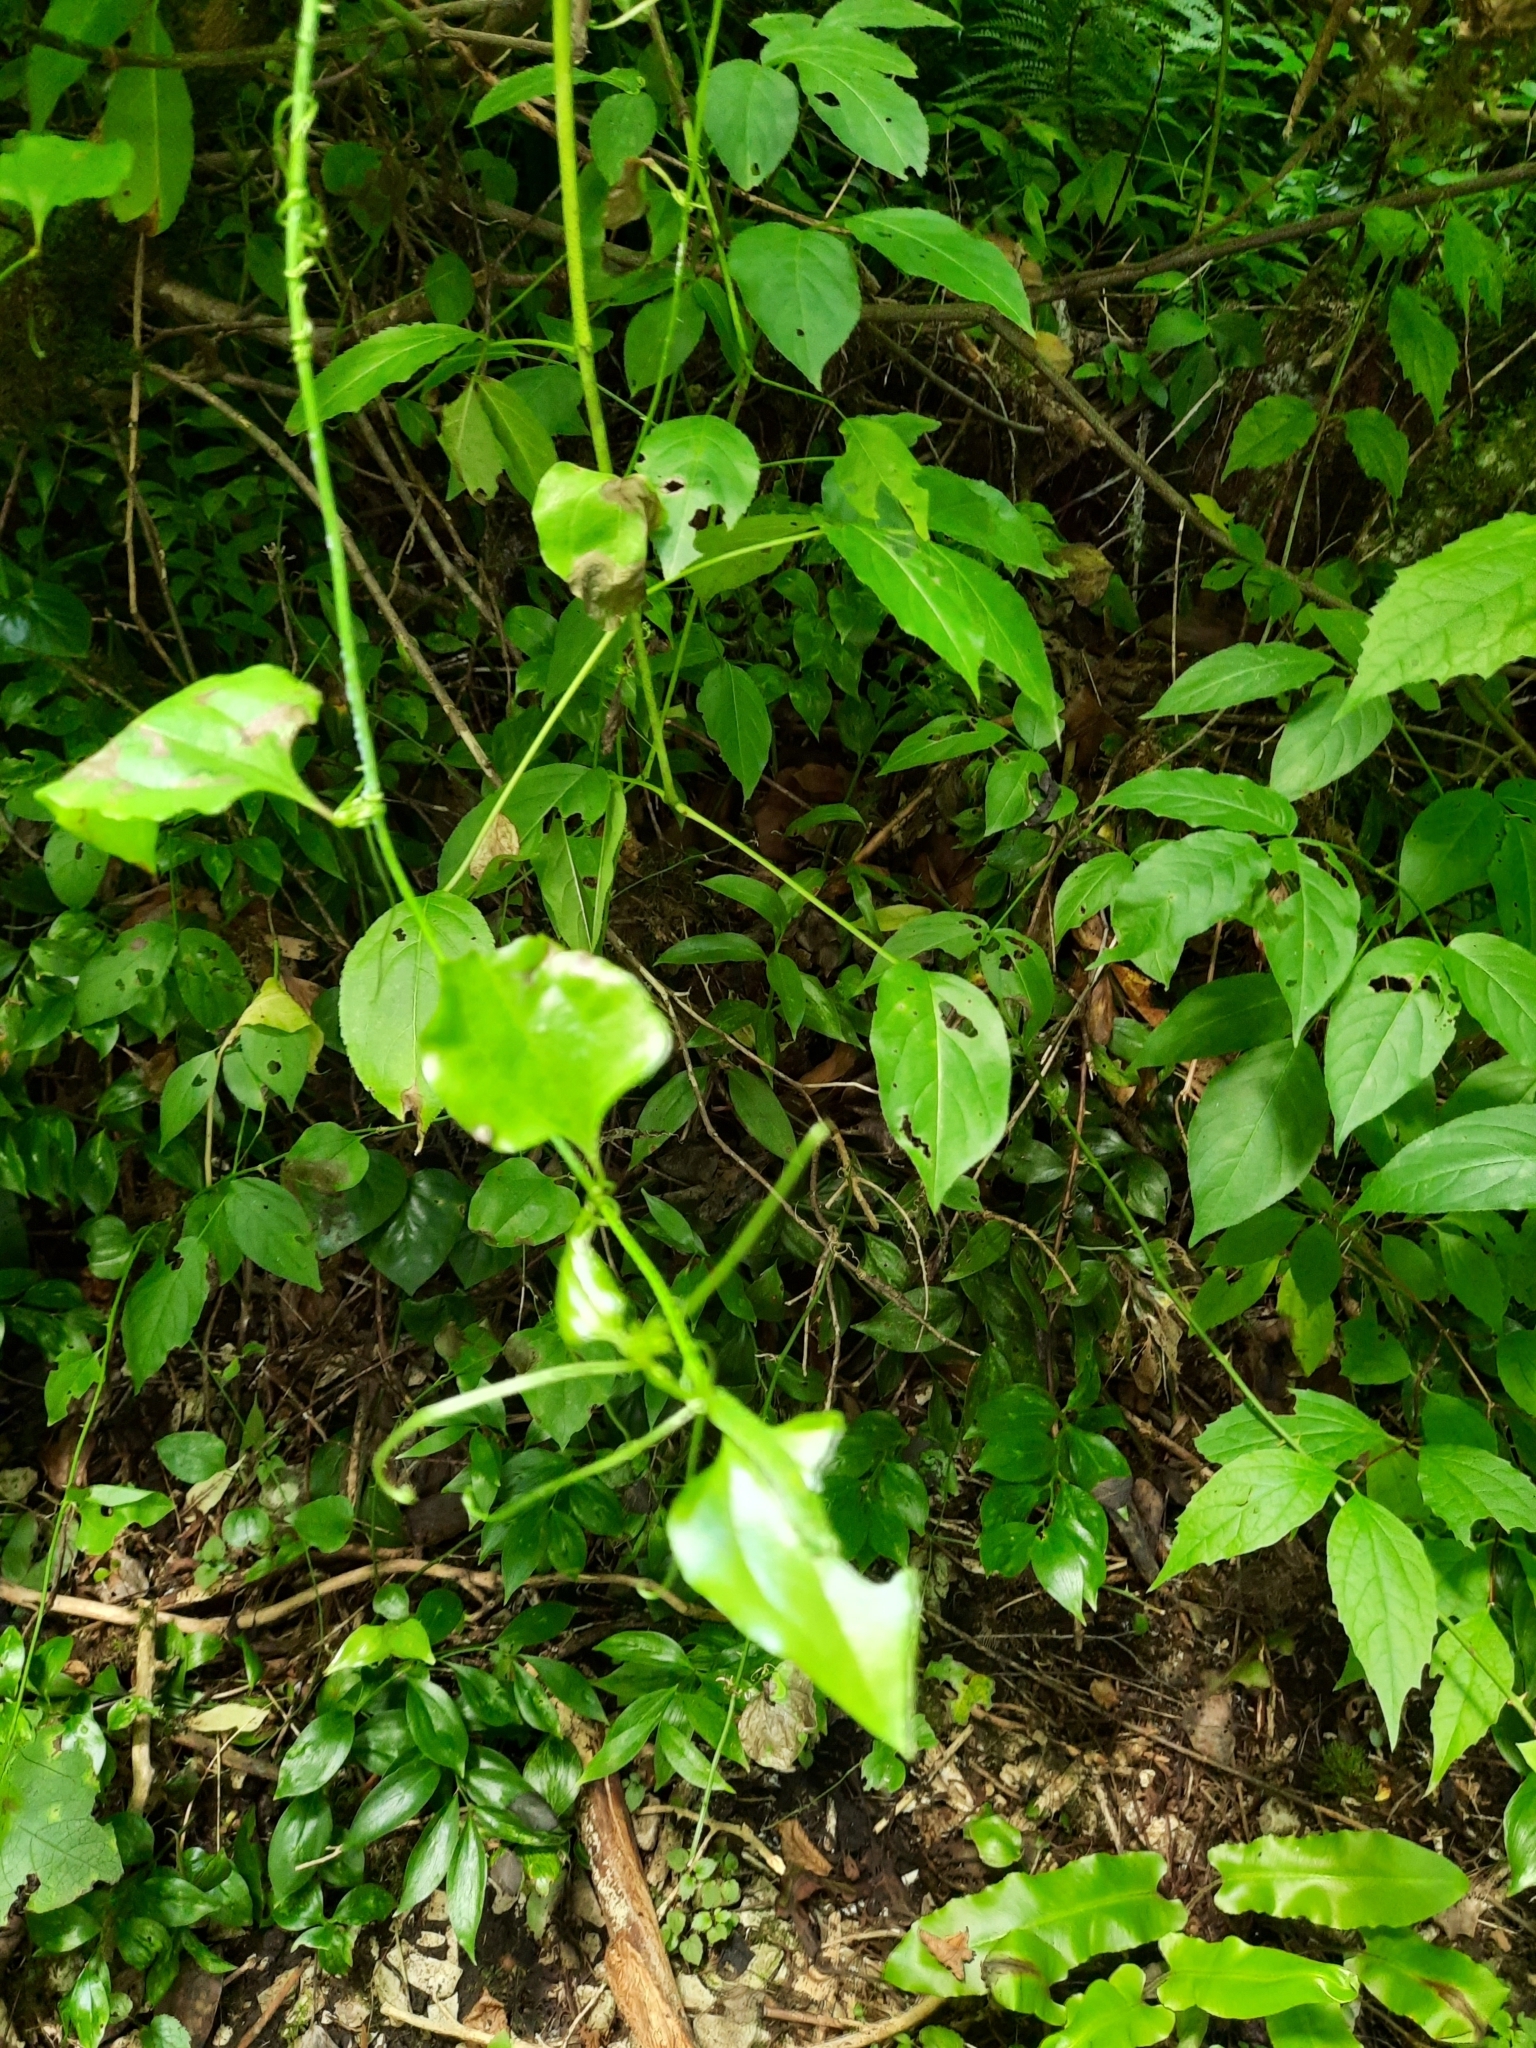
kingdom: Plantae
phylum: Tracheophyta
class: Liliopsida
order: Liliales
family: Smilacaceae
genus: Smilax
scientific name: Smilax excelsa
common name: Larger smilax
